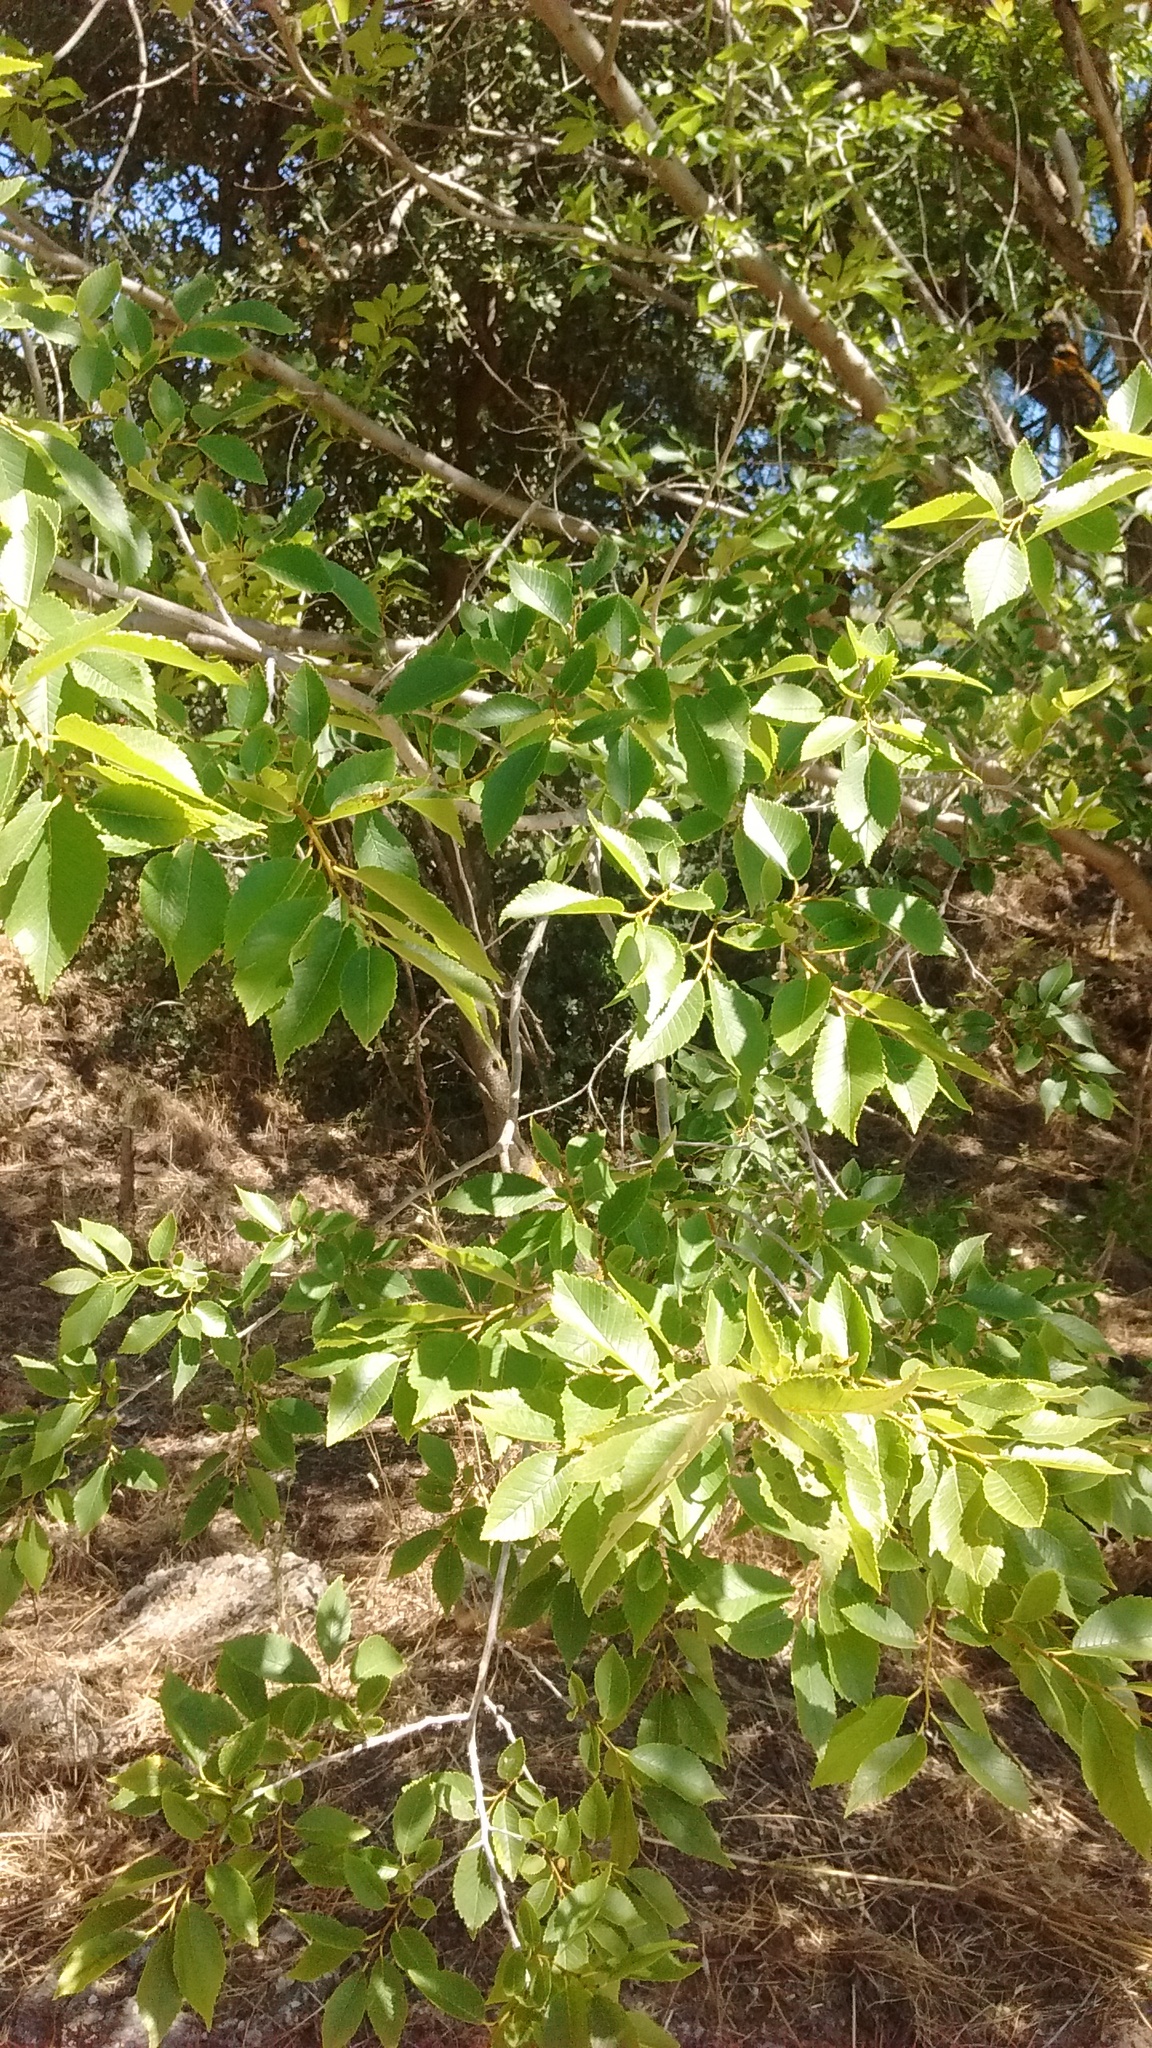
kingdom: Plantae
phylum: Tracheophyta
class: Magnoliopsida
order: Rosales
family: Ulmaceae
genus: Ulmus
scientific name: Ulmus pumila
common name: Siberian elm
